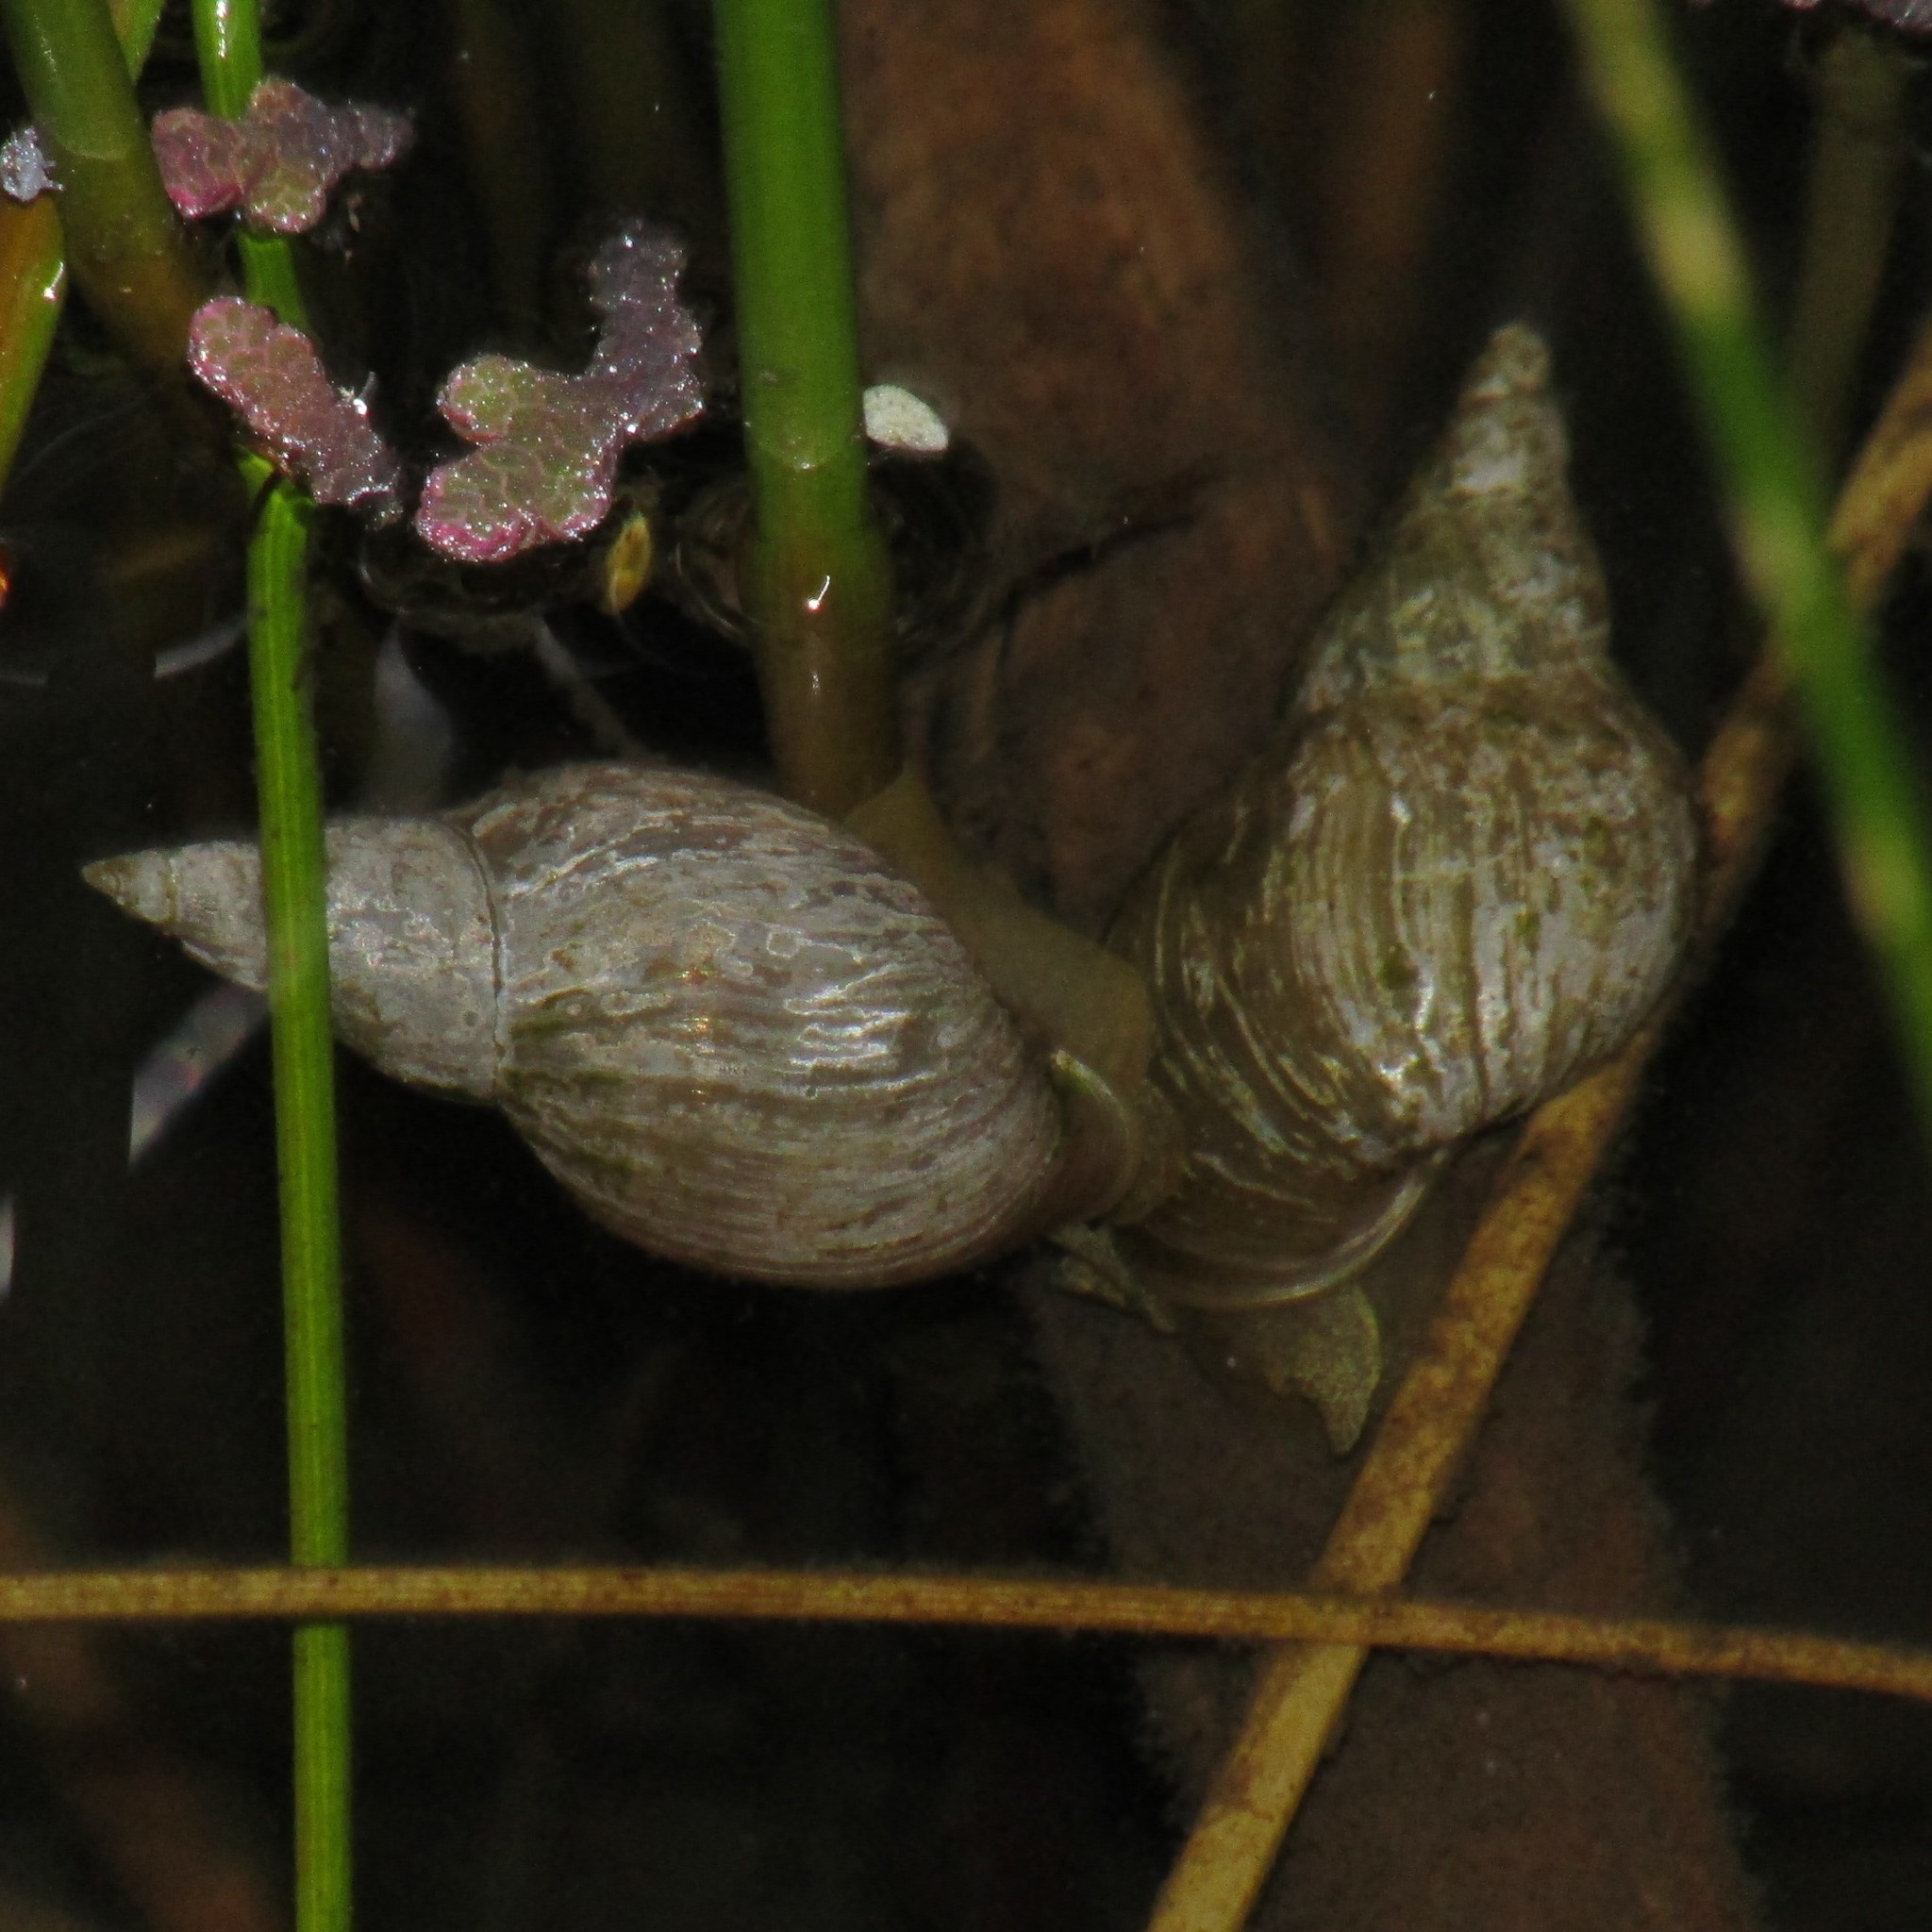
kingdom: Animalia
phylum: Mollusca
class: Gastropoda
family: Lymnaeidae
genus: Lymnaea
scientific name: Lymnaea stagnalis
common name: Great pond snail
